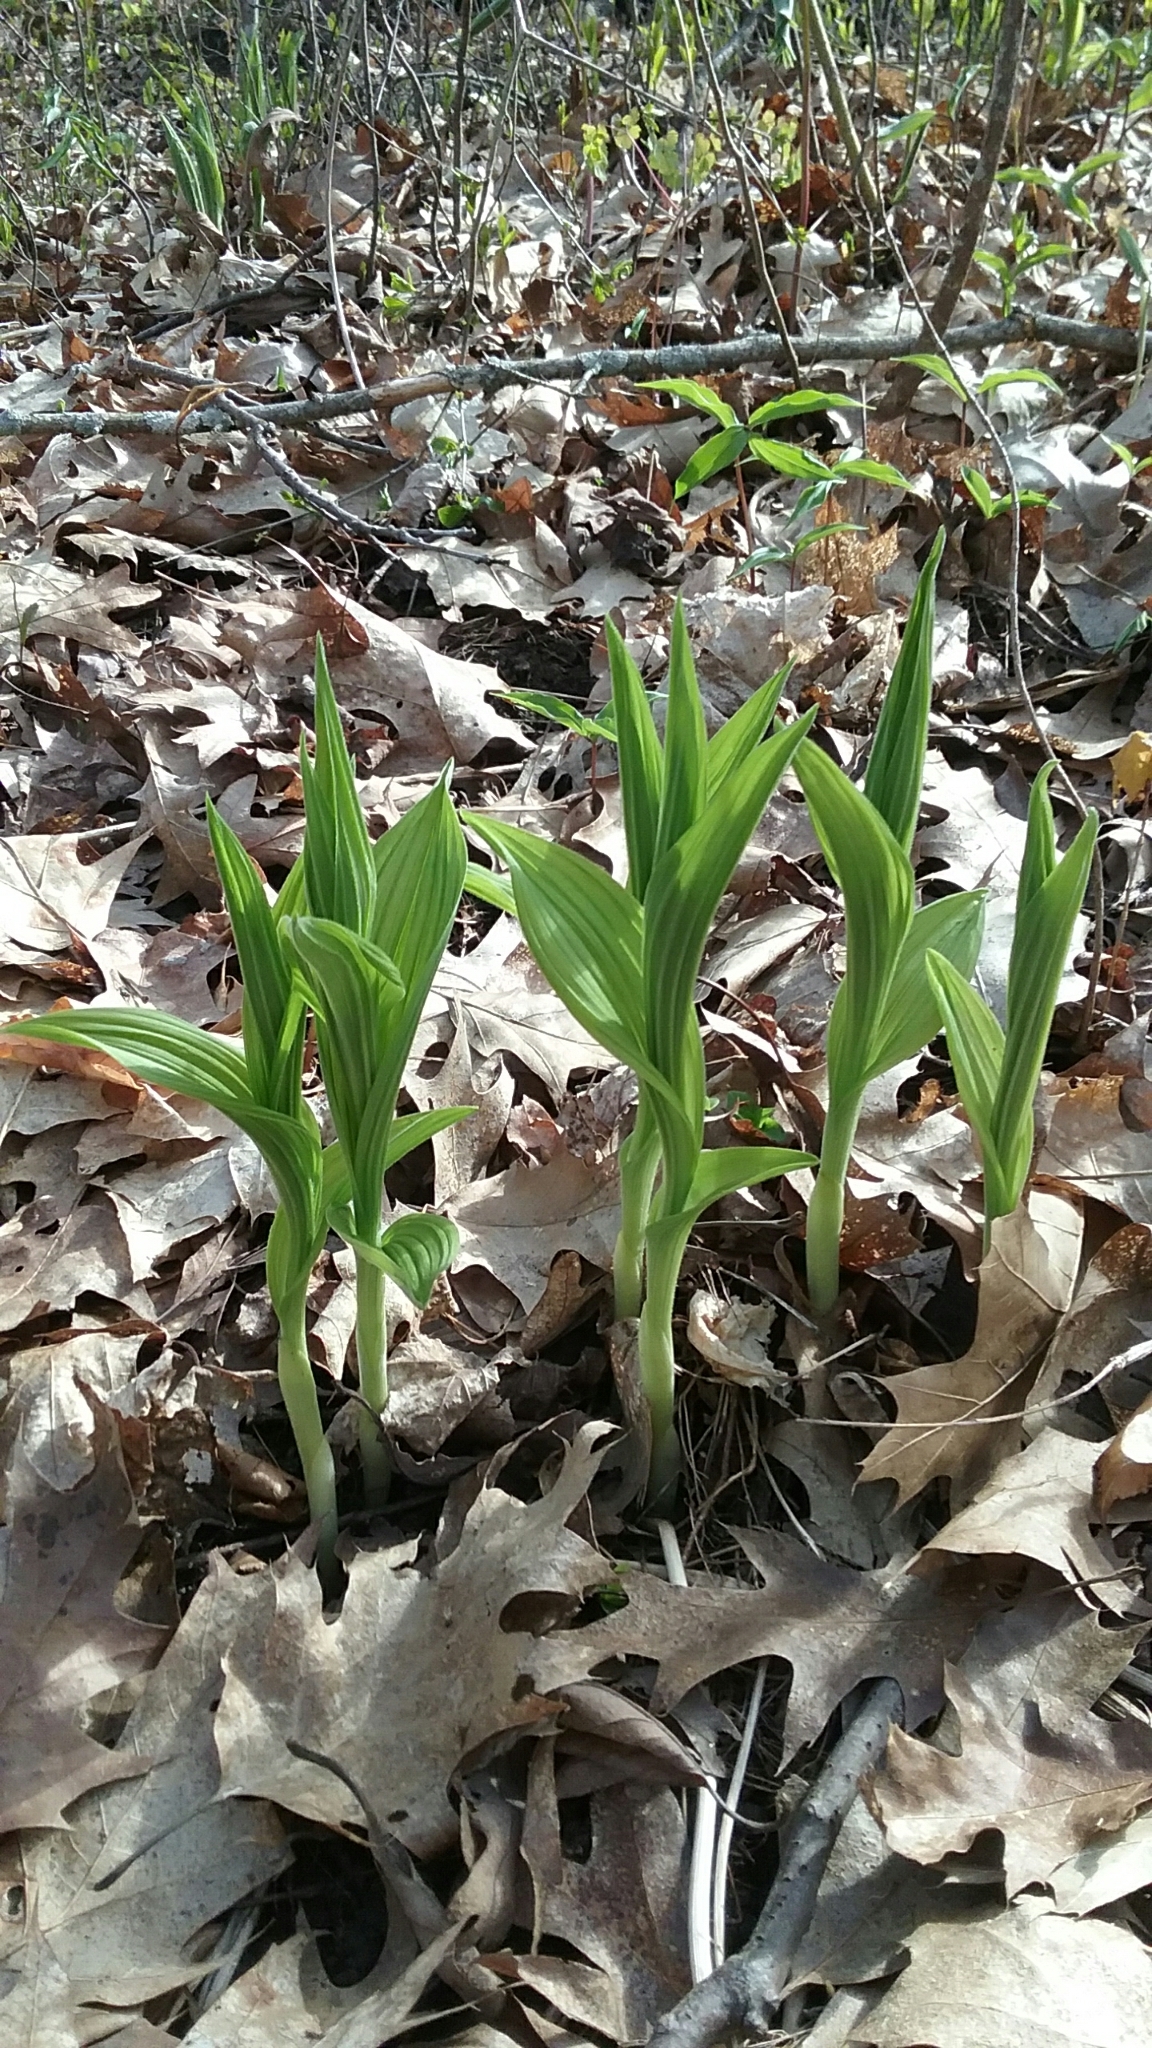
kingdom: Plantae
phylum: Tracheophyta
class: Liliopsida
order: Asparagales
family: Orchidaceae
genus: Cypripedium
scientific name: Cypripedium parviflorum
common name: American yellow lady's-slipper
